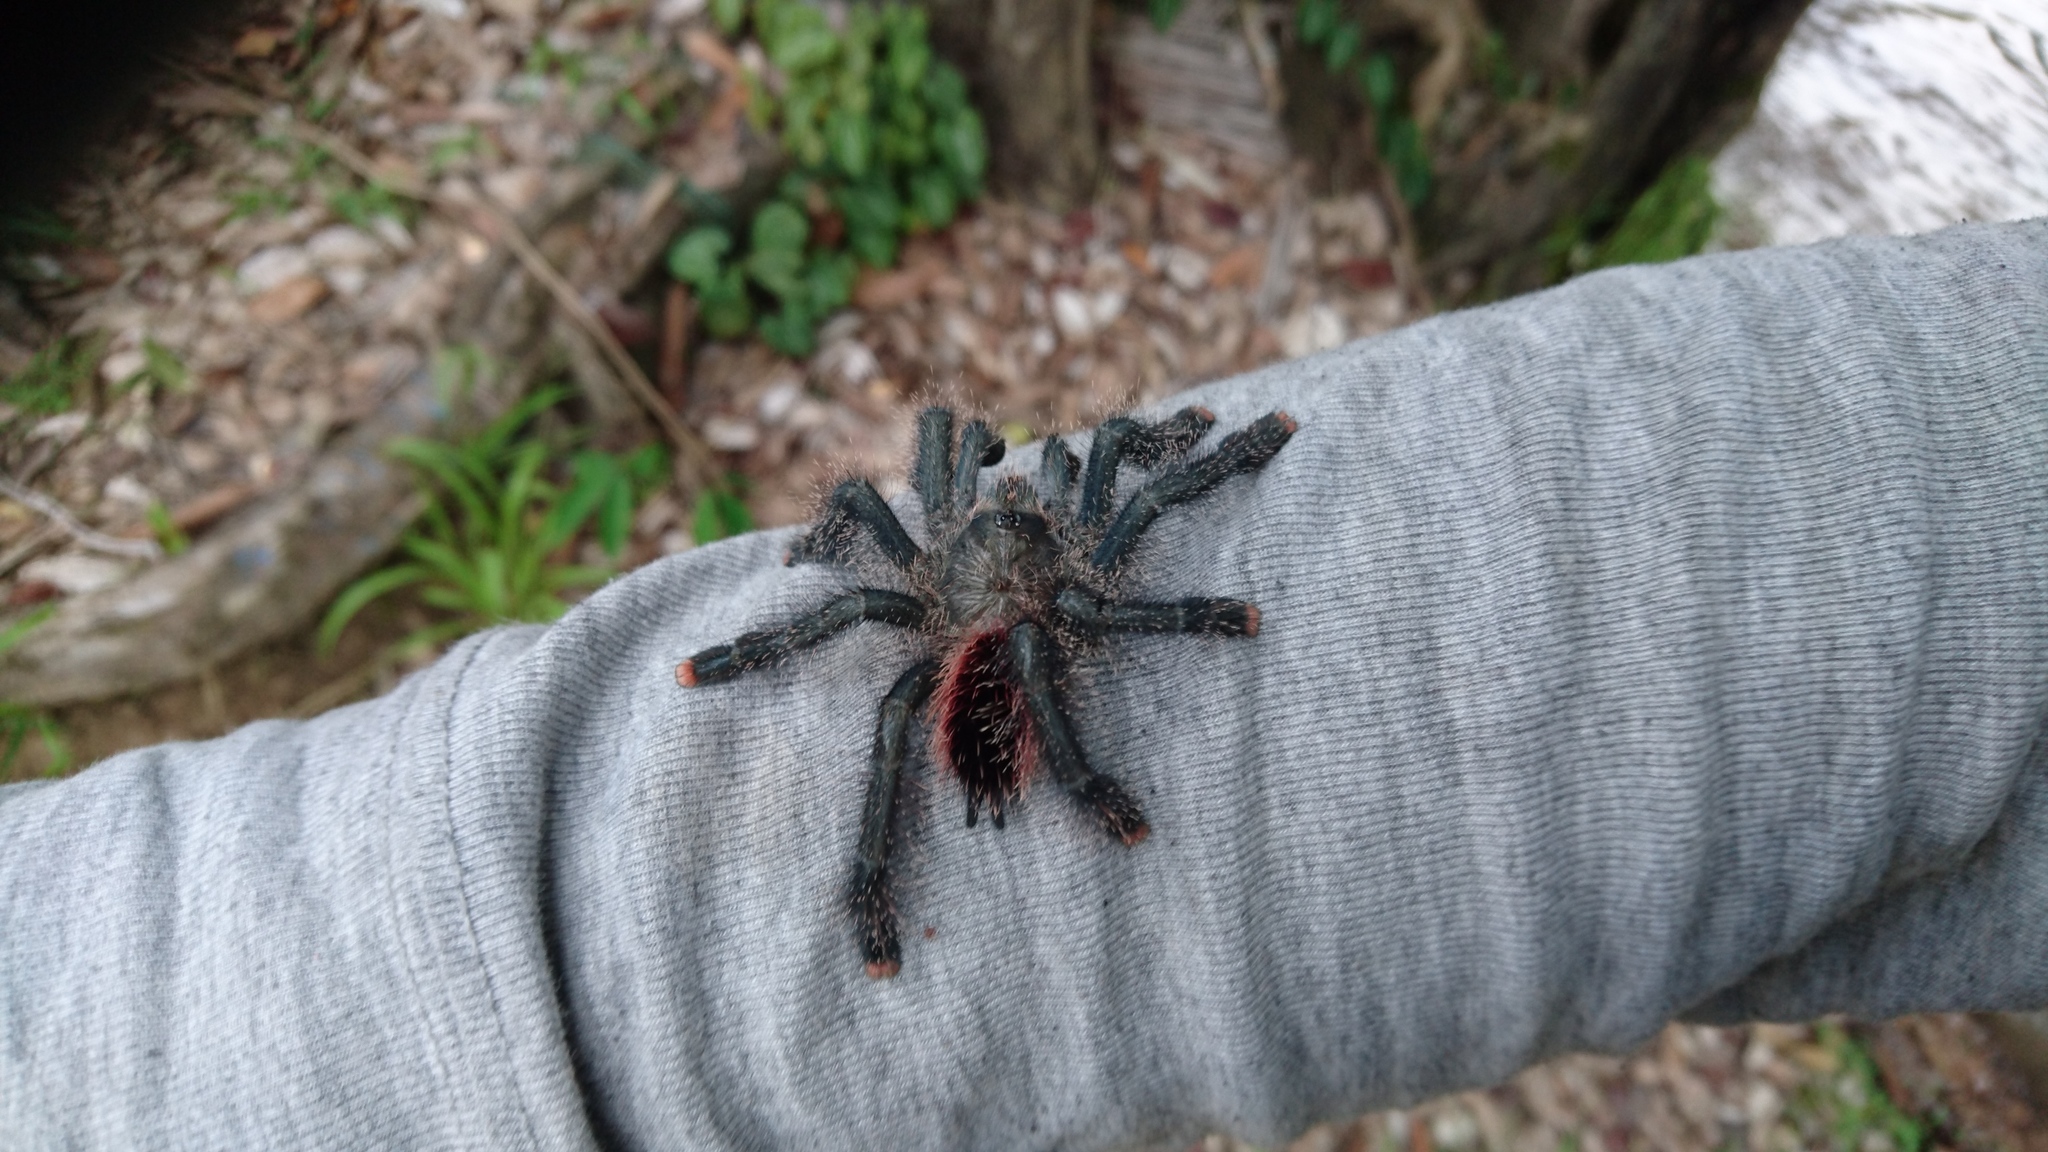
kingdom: Animalia
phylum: Arthropoda
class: Arachnida
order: Araneae
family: Theraphosidae
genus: Avicularia
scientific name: Avicularia juruensis
